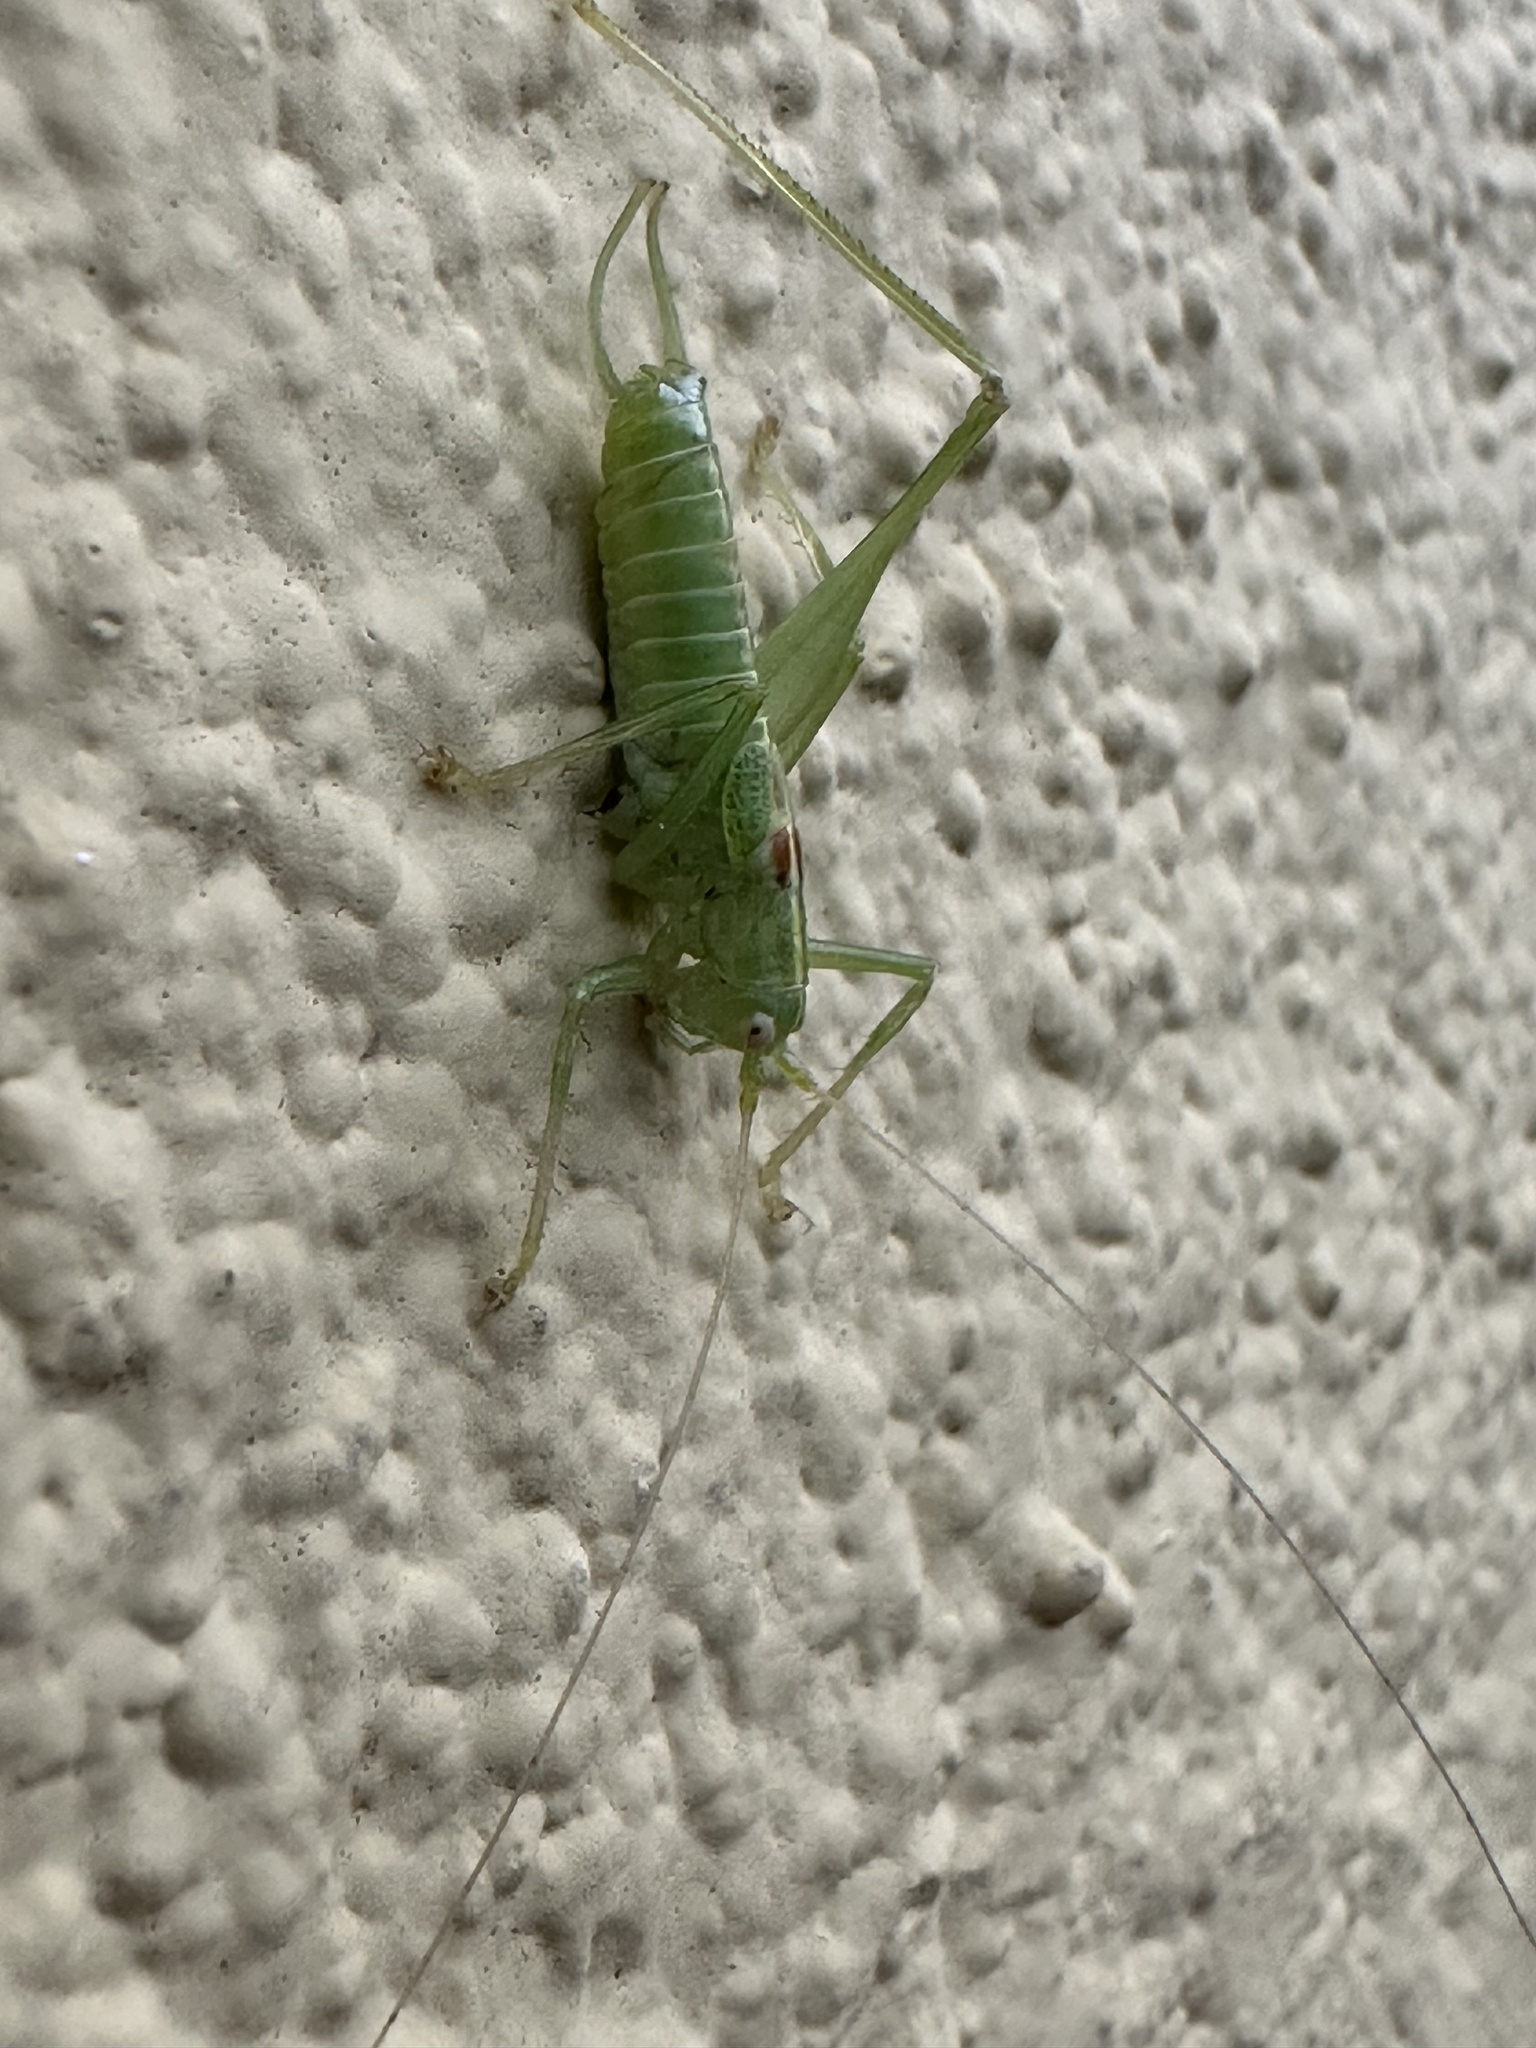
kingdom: Animalia
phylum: Arthropoda
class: Insecta
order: Orthoptera
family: Tettigoniidae
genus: Meconema
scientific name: Meconema meridionale
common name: Southern oak bush-cricket
